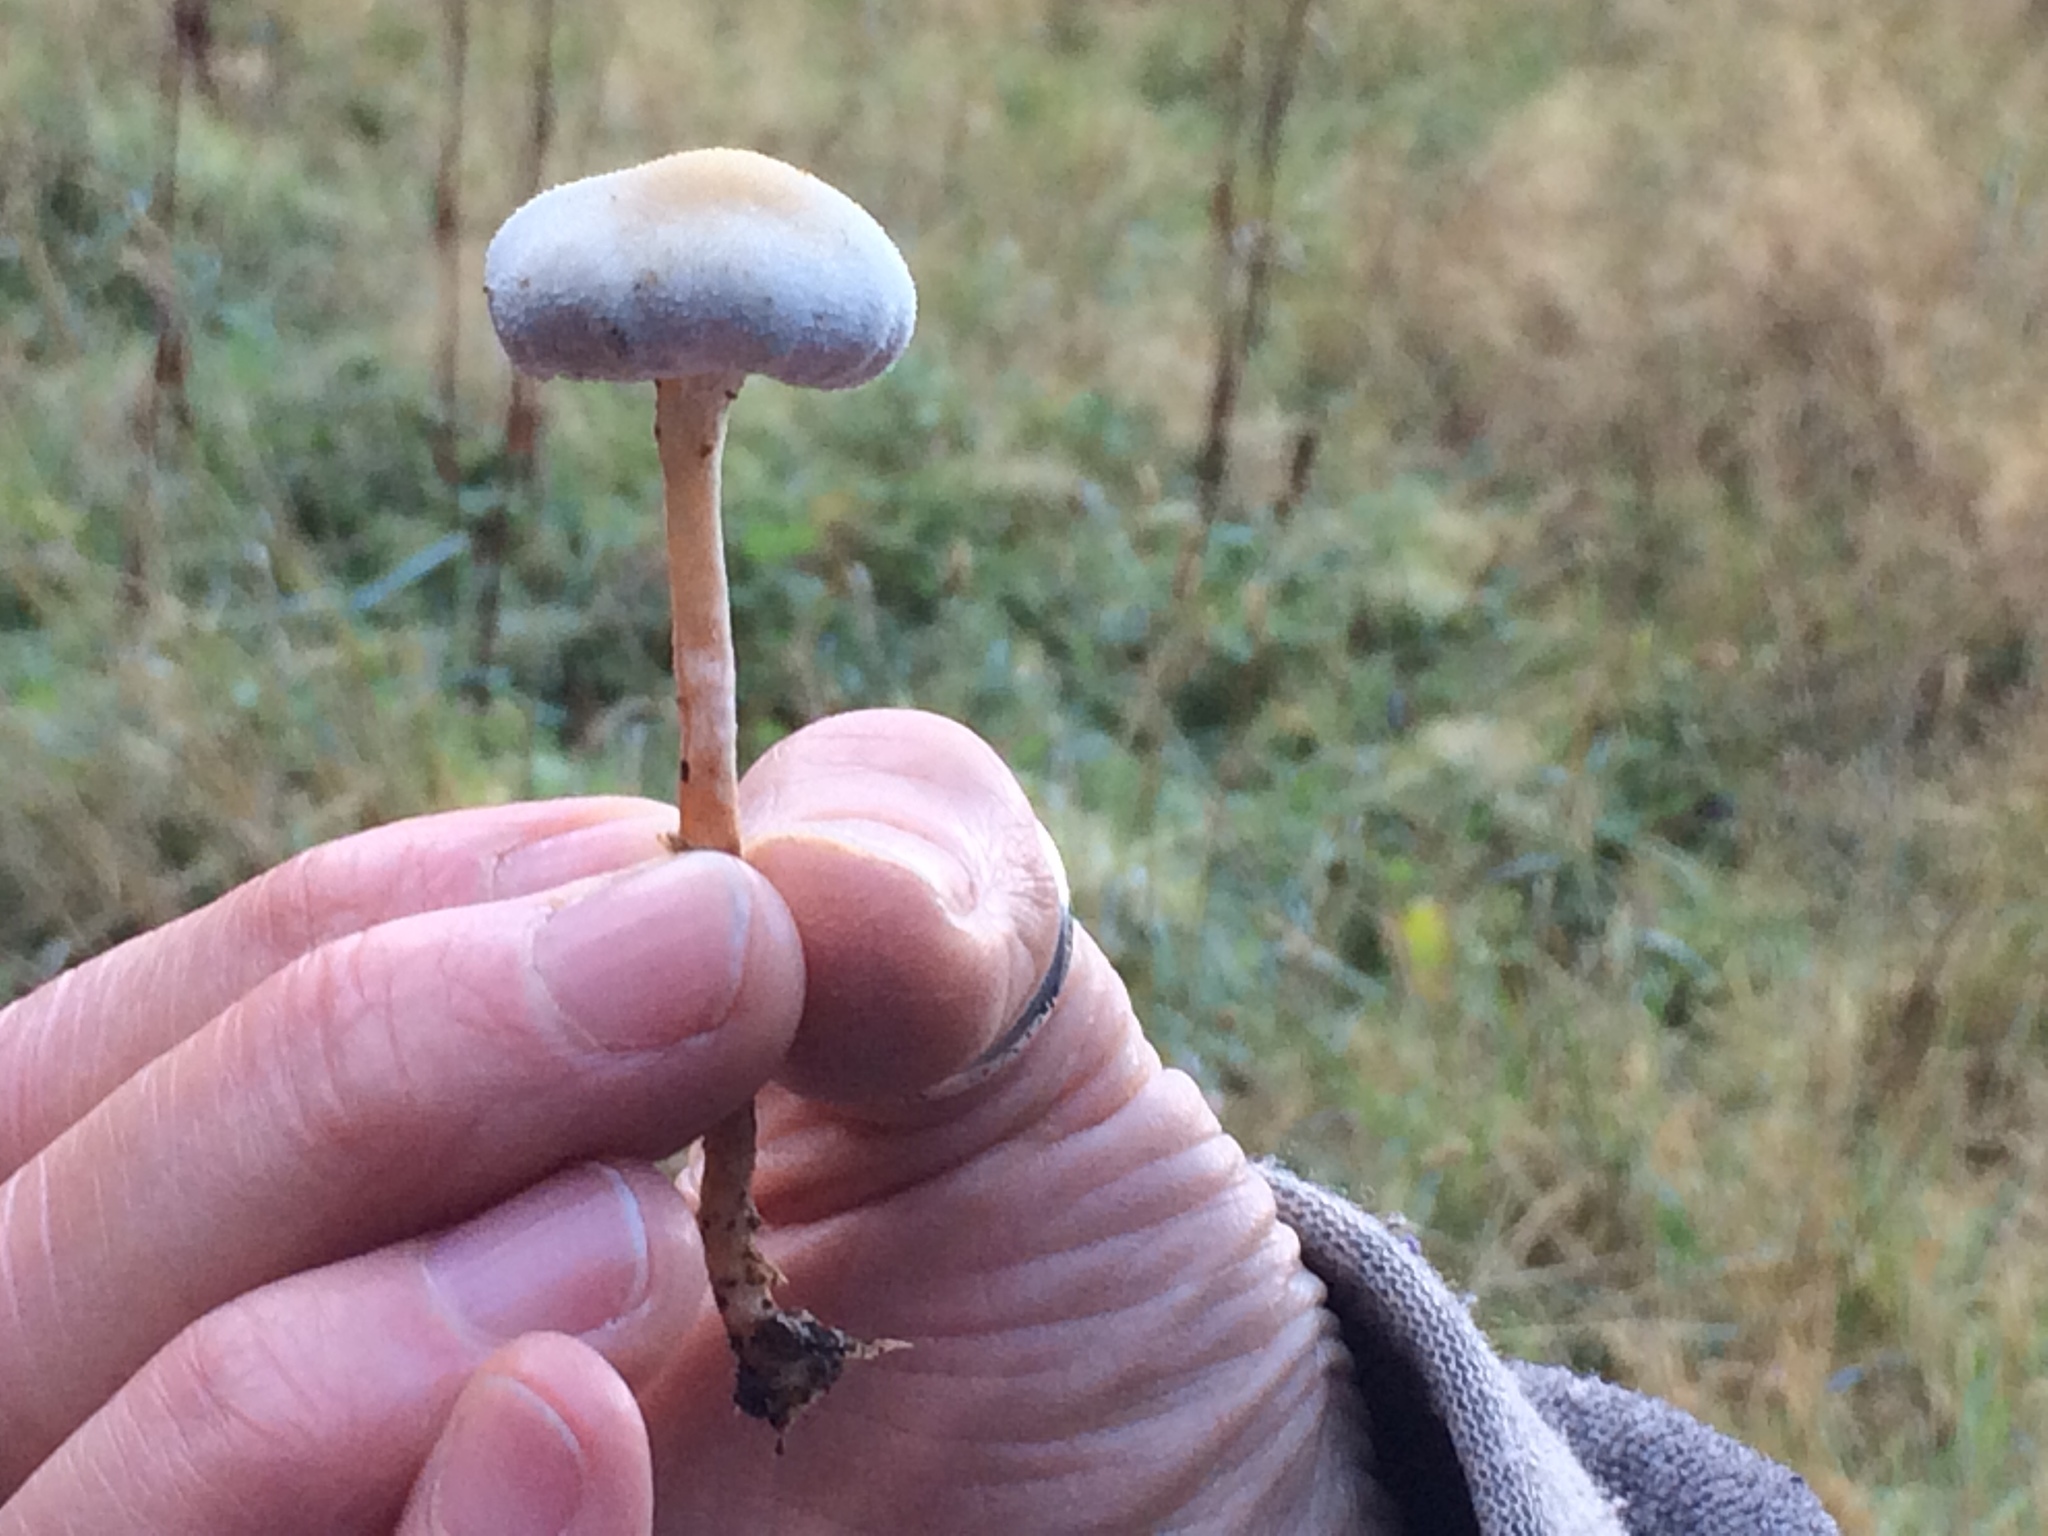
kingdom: Fungi
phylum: Basidiomycota
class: Agaricomycetes
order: Agaricales
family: Bolbitiaceae
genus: Tympanella
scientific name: Tympanella galanthina
